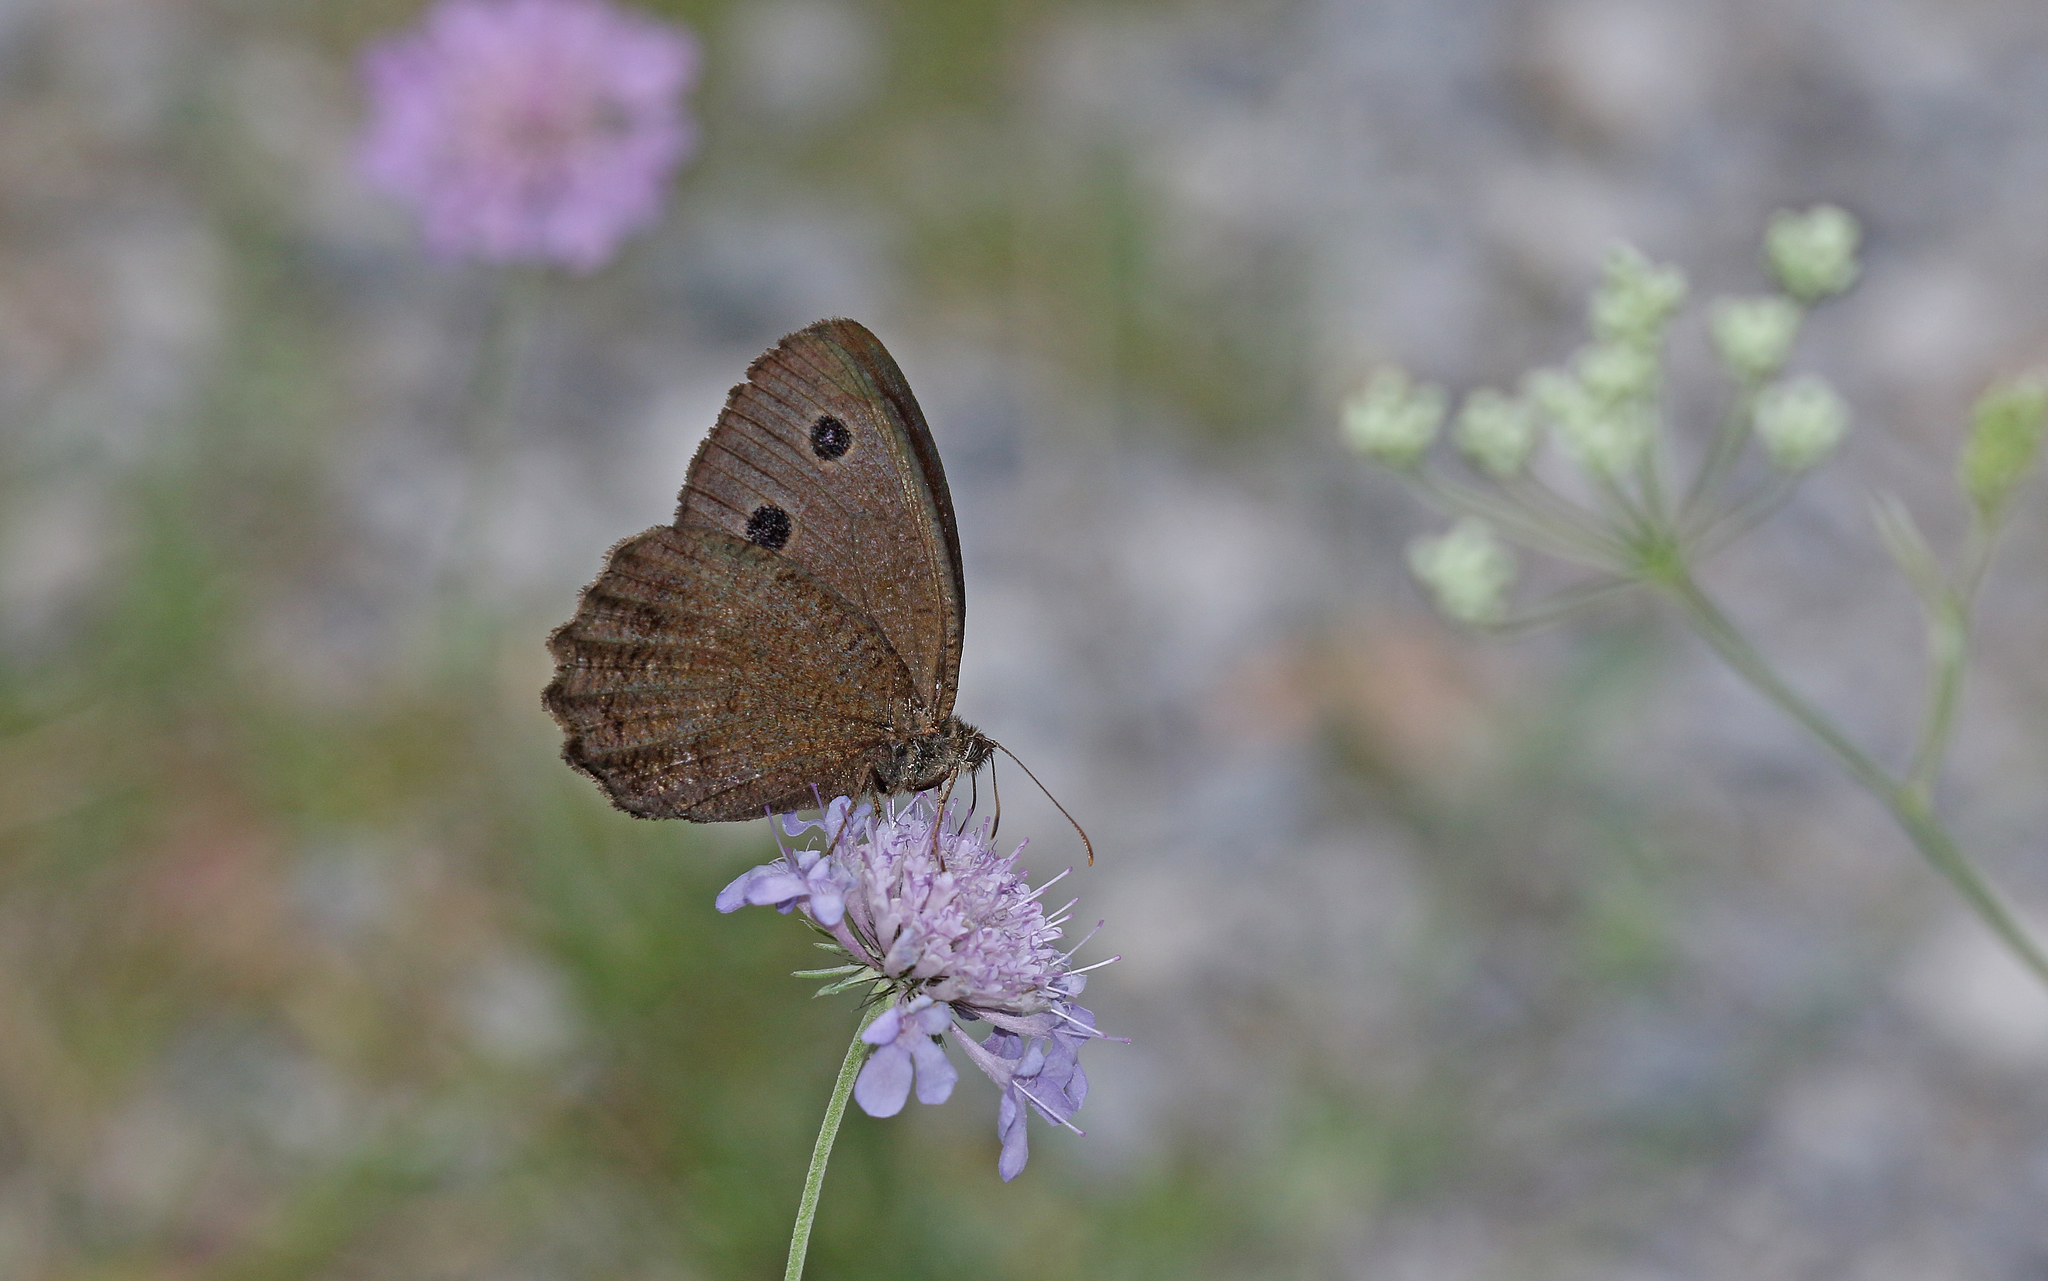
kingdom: Animalia
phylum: Arthropoda
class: Insecta
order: Lepidoptera
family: Nymphalidae
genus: Minois
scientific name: Minois dryas
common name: Dryad
